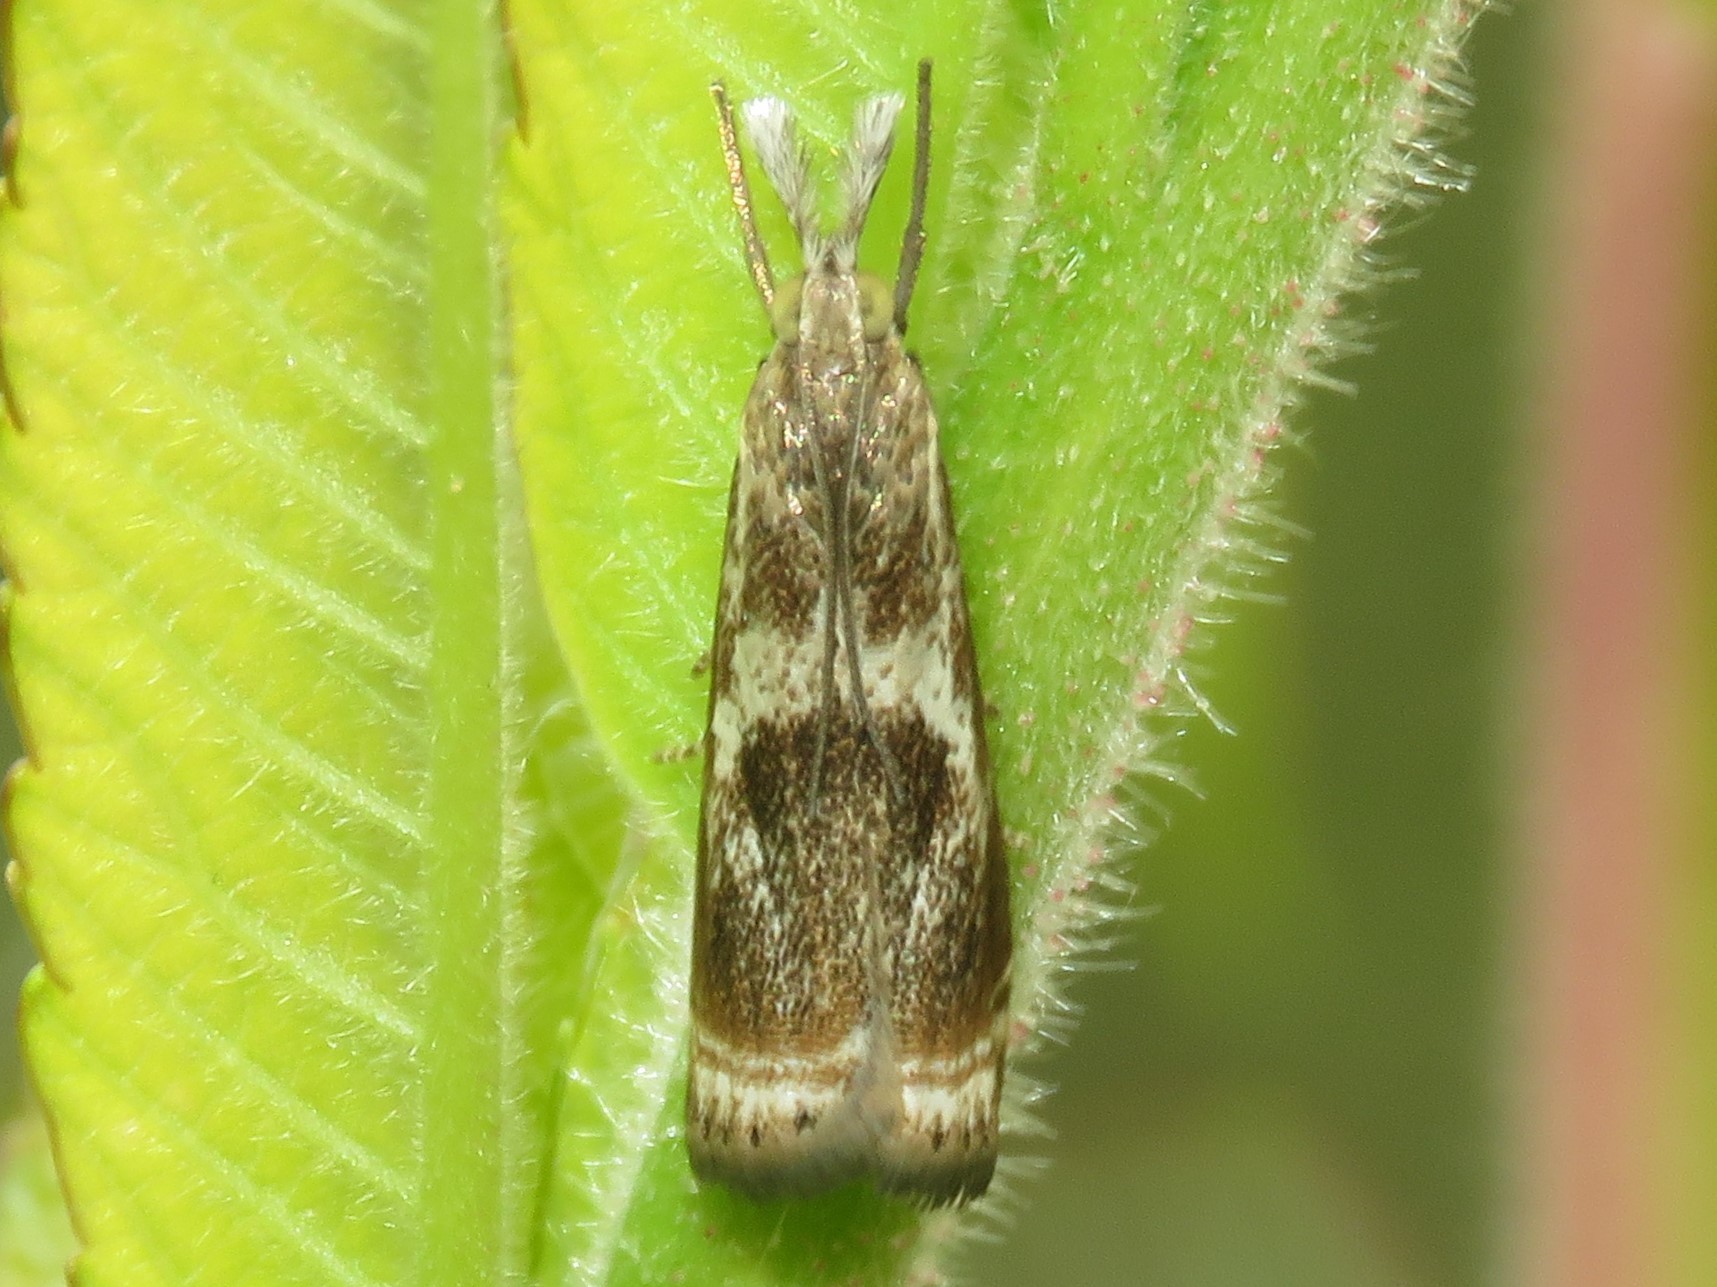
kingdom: Animalia
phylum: Arthropoda
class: Insecta
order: Lepidoptera
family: Crambidae
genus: Microcrambus
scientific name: Microcrambus elegans
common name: Elegant grass-veneer
